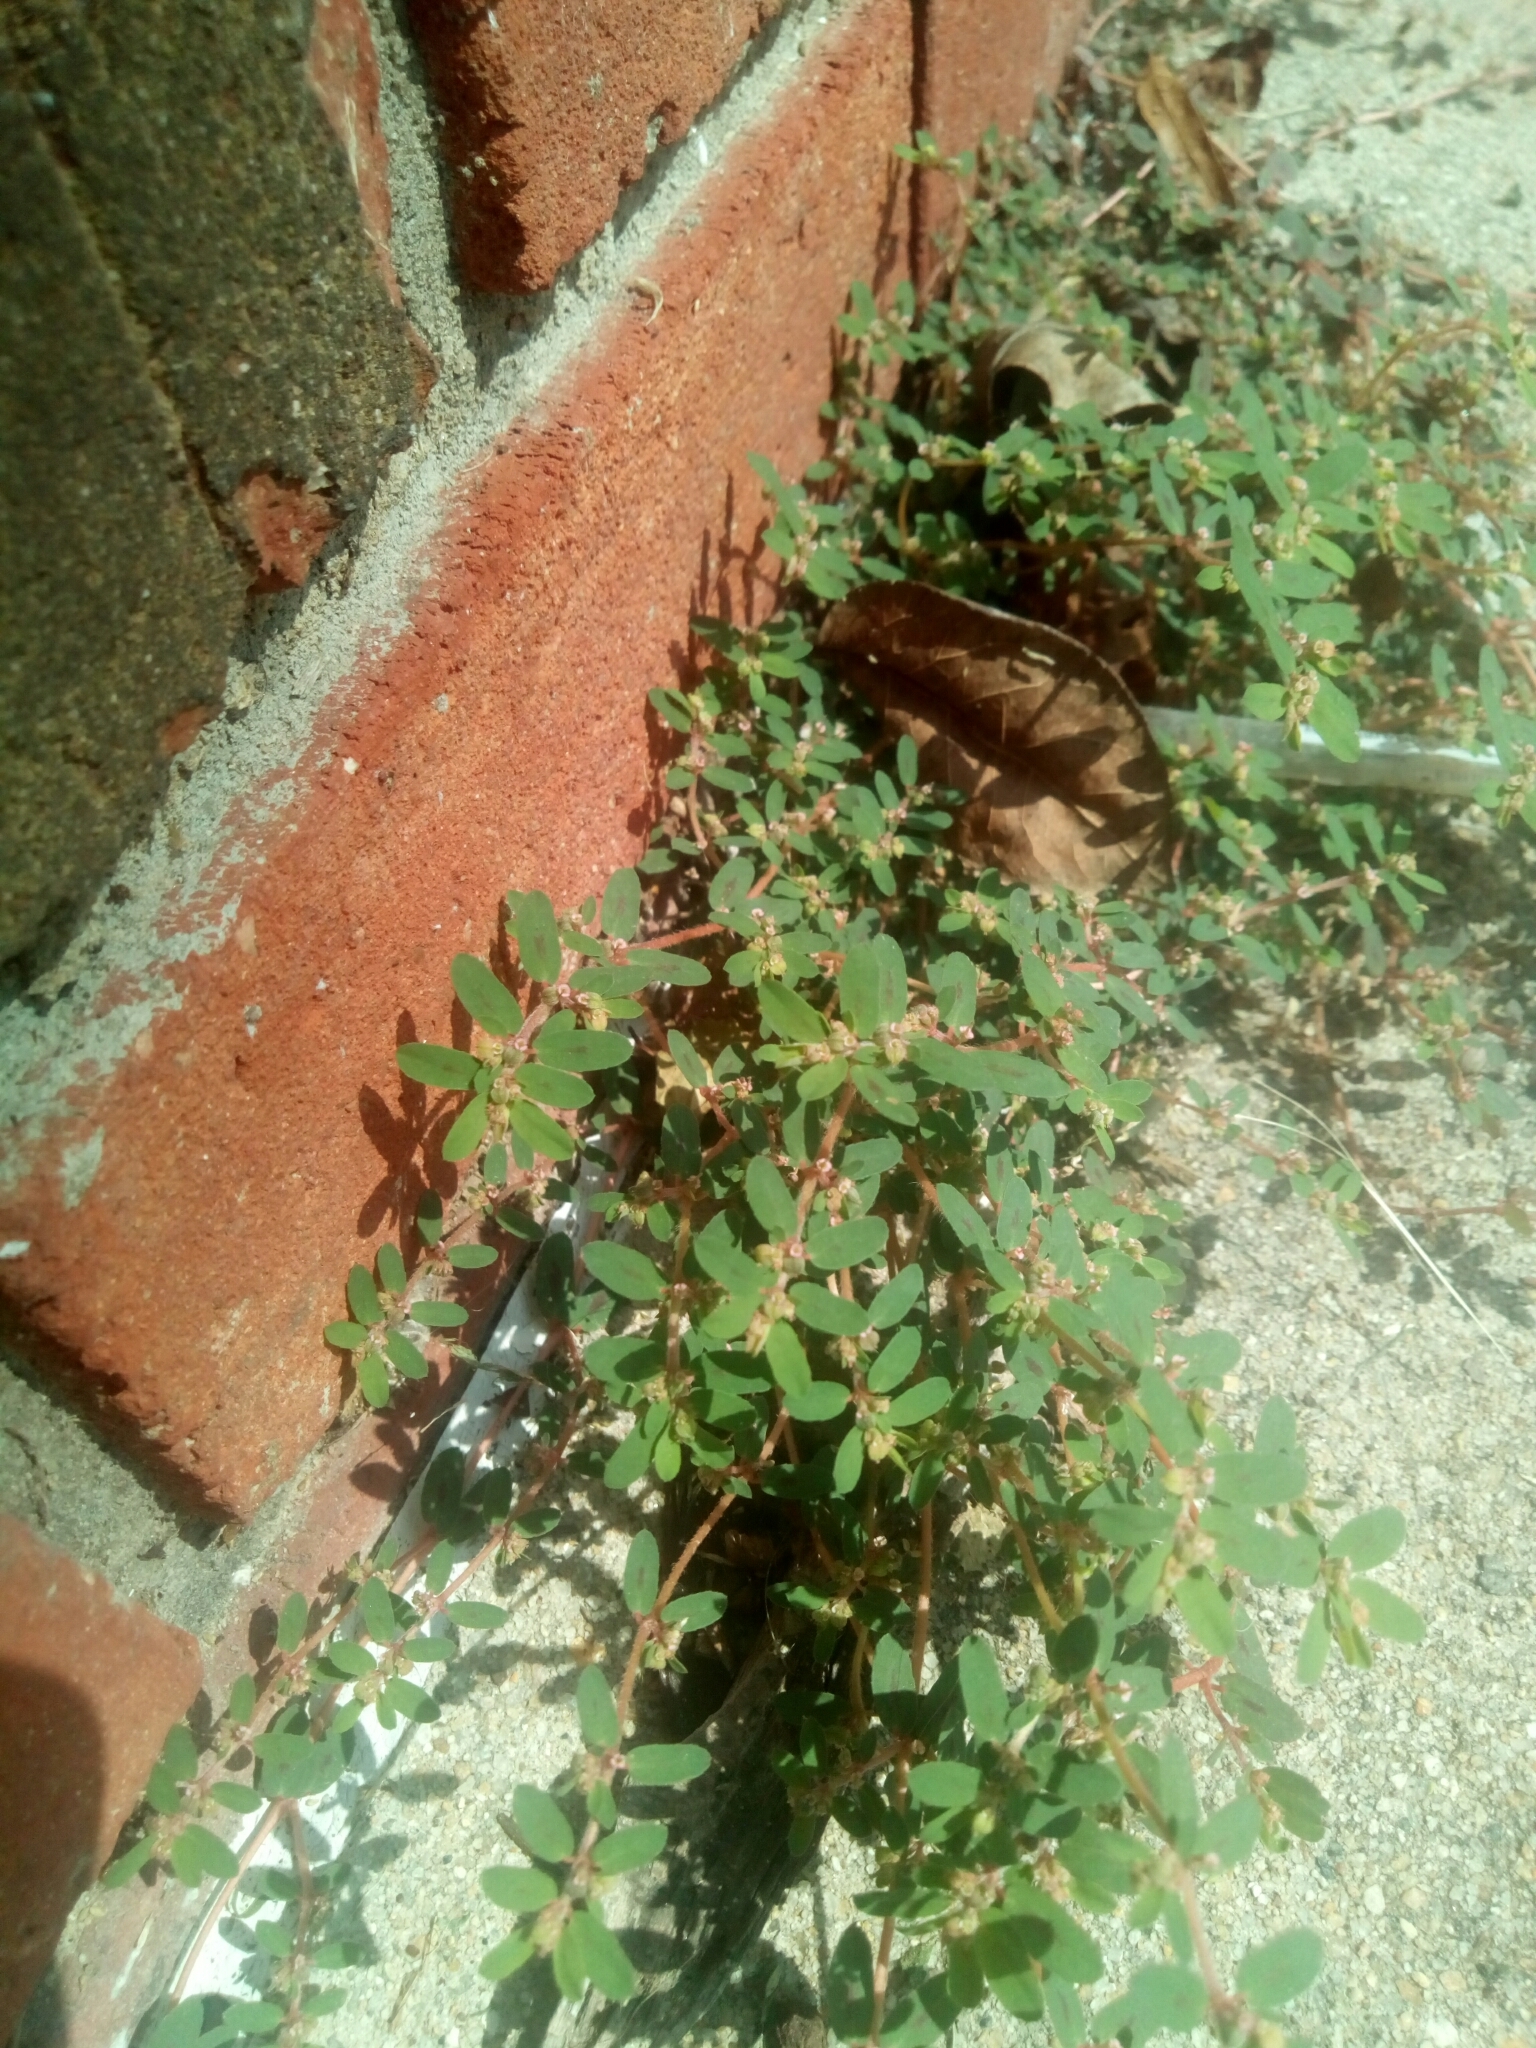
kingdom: Plantae
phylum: Tracheophyta
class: Magnoliopsida
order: Malpighiales
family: Euphorbiaceae
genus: Euphorbia
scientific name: Euphorbia maculata
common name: Spotted spurge
